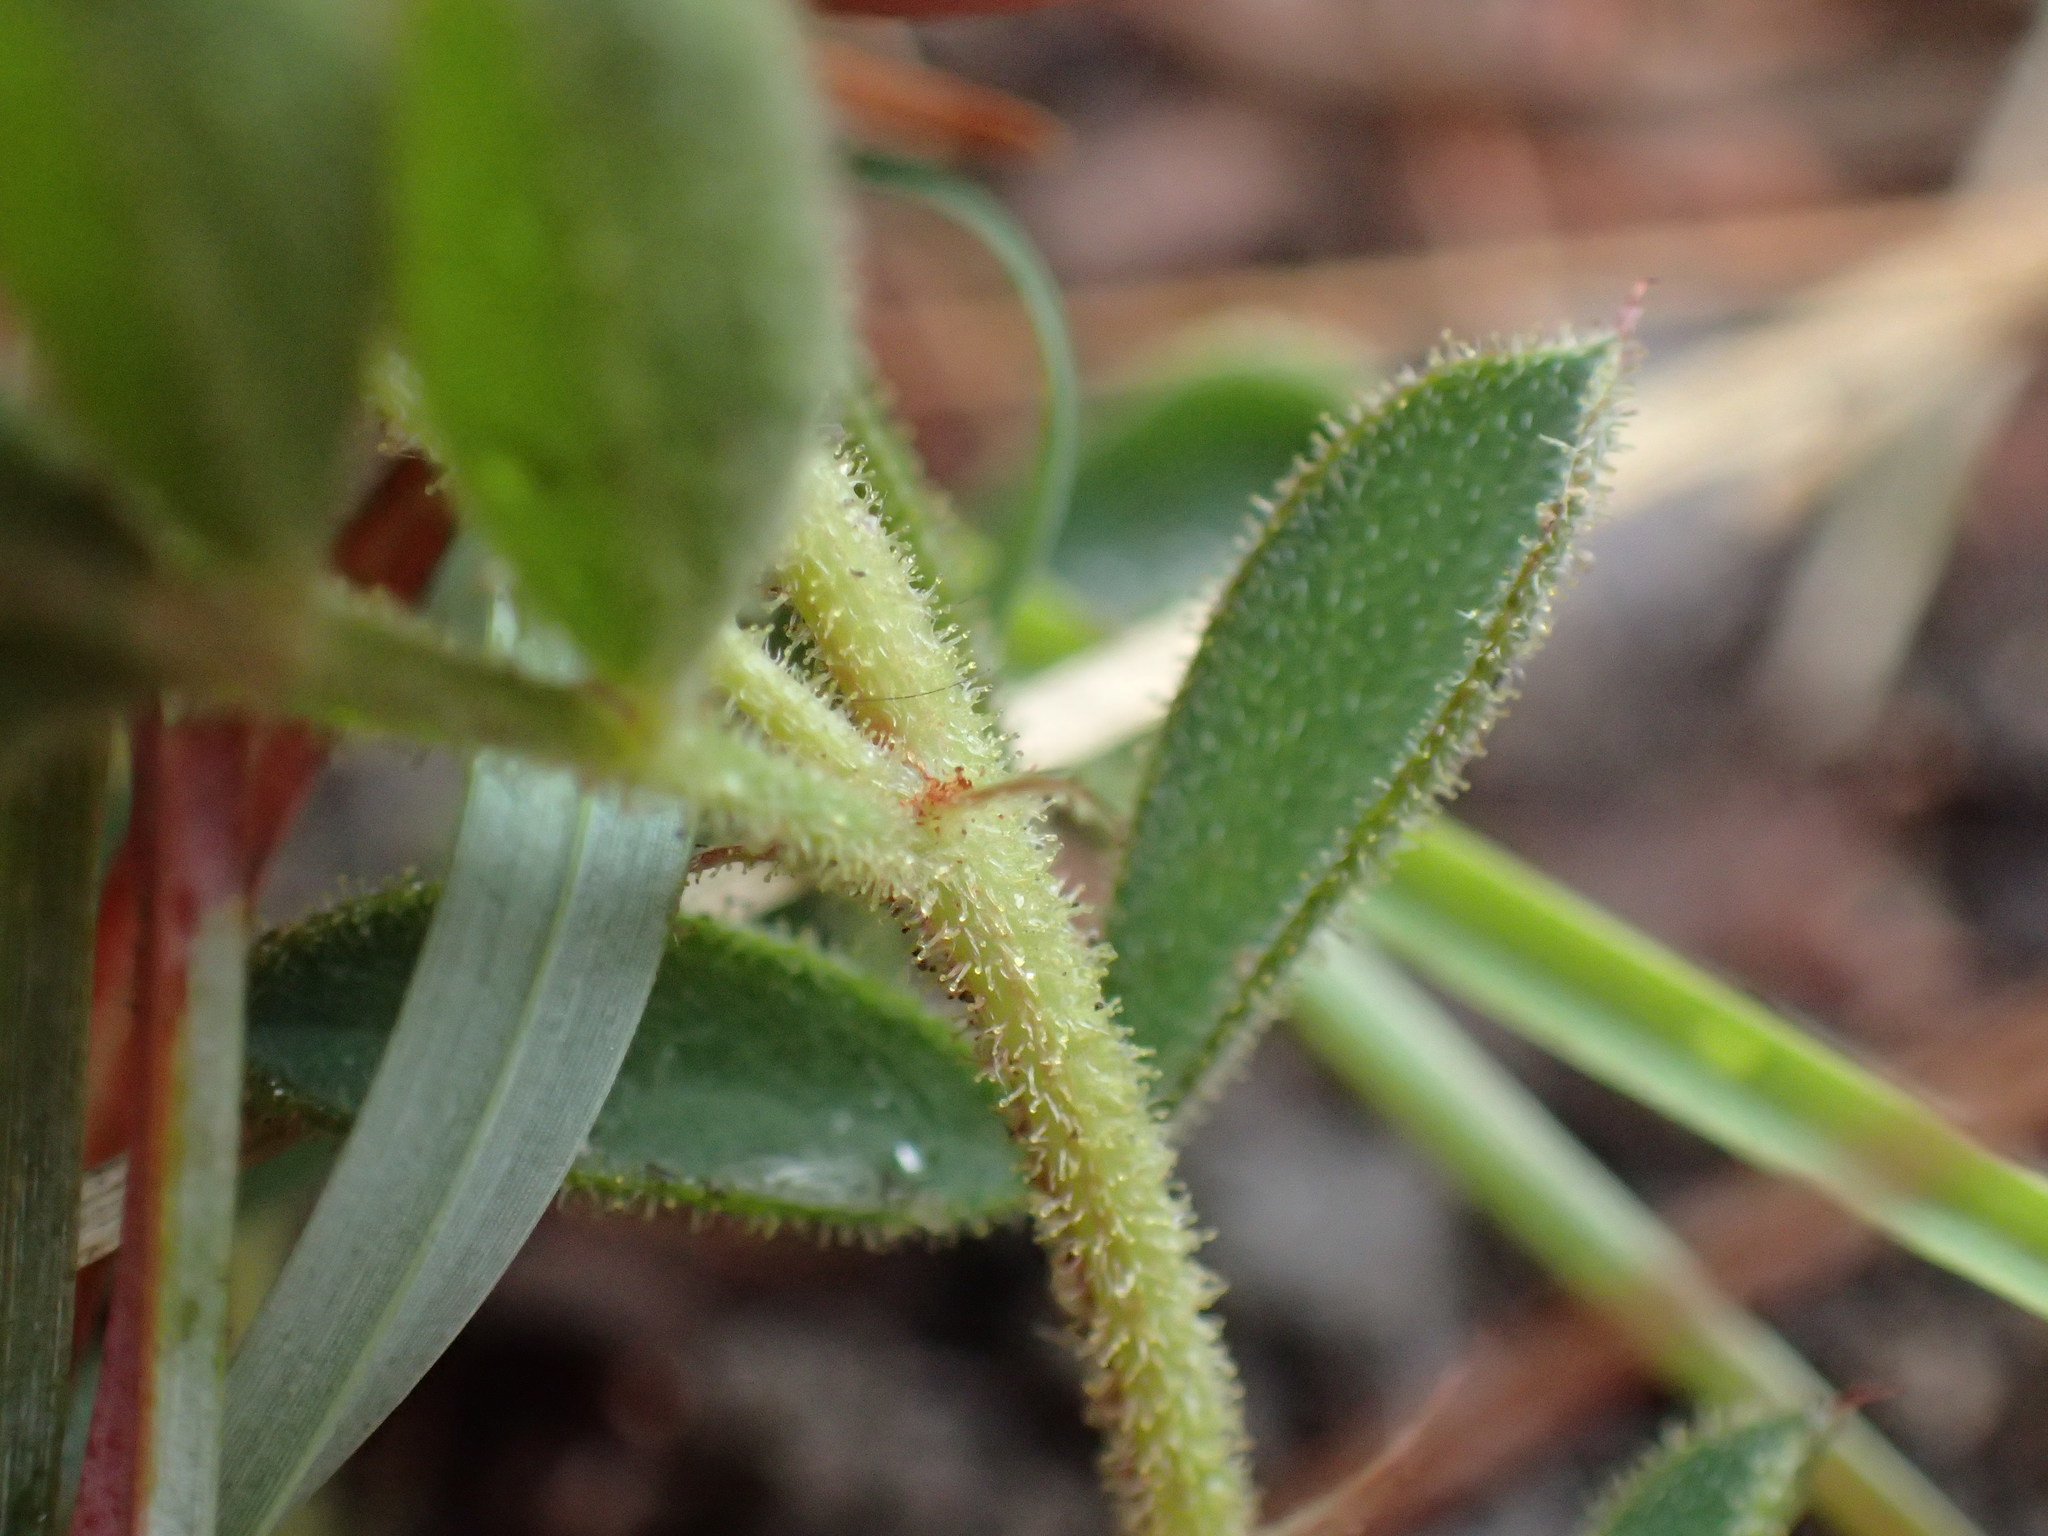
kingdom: Plantae
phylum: Tracheophyta
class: Magnoliopsida
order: Fabales
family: Fabaceae
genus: Indigofera
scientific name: Indigofera tristis
